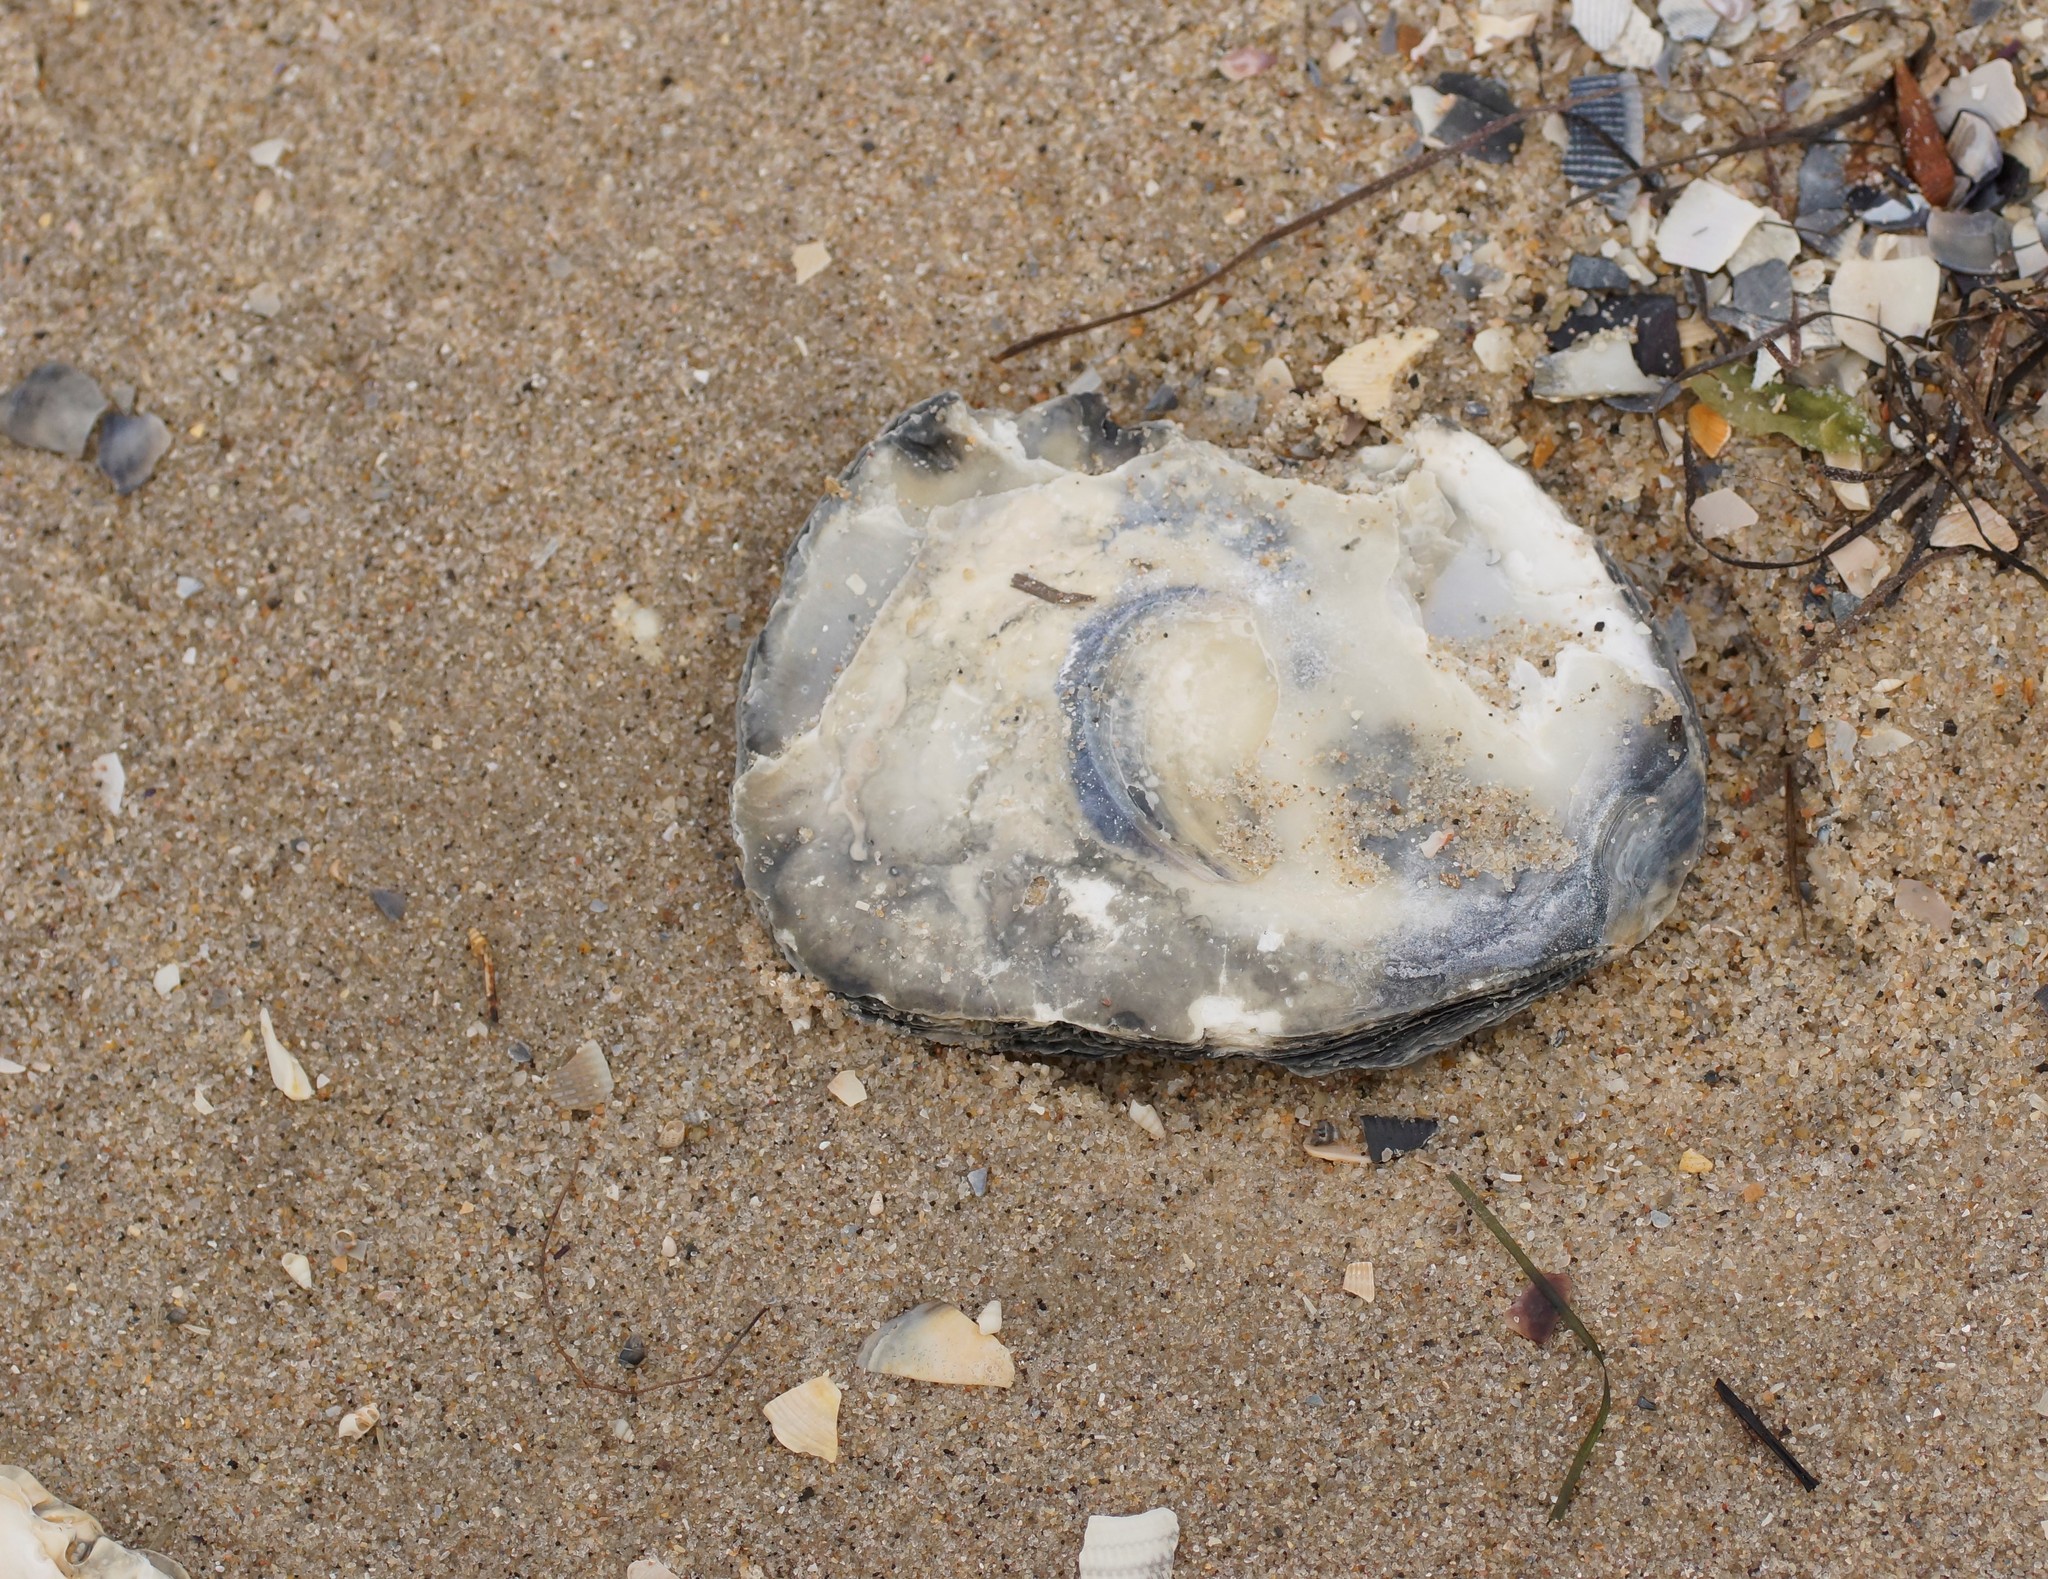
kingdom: Animalia
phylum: Mollusca
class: Bivalvia
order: Ostreida
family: Ostreidae
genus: Ostrea
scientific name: Ostrea angasi
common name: Angasi oyster
